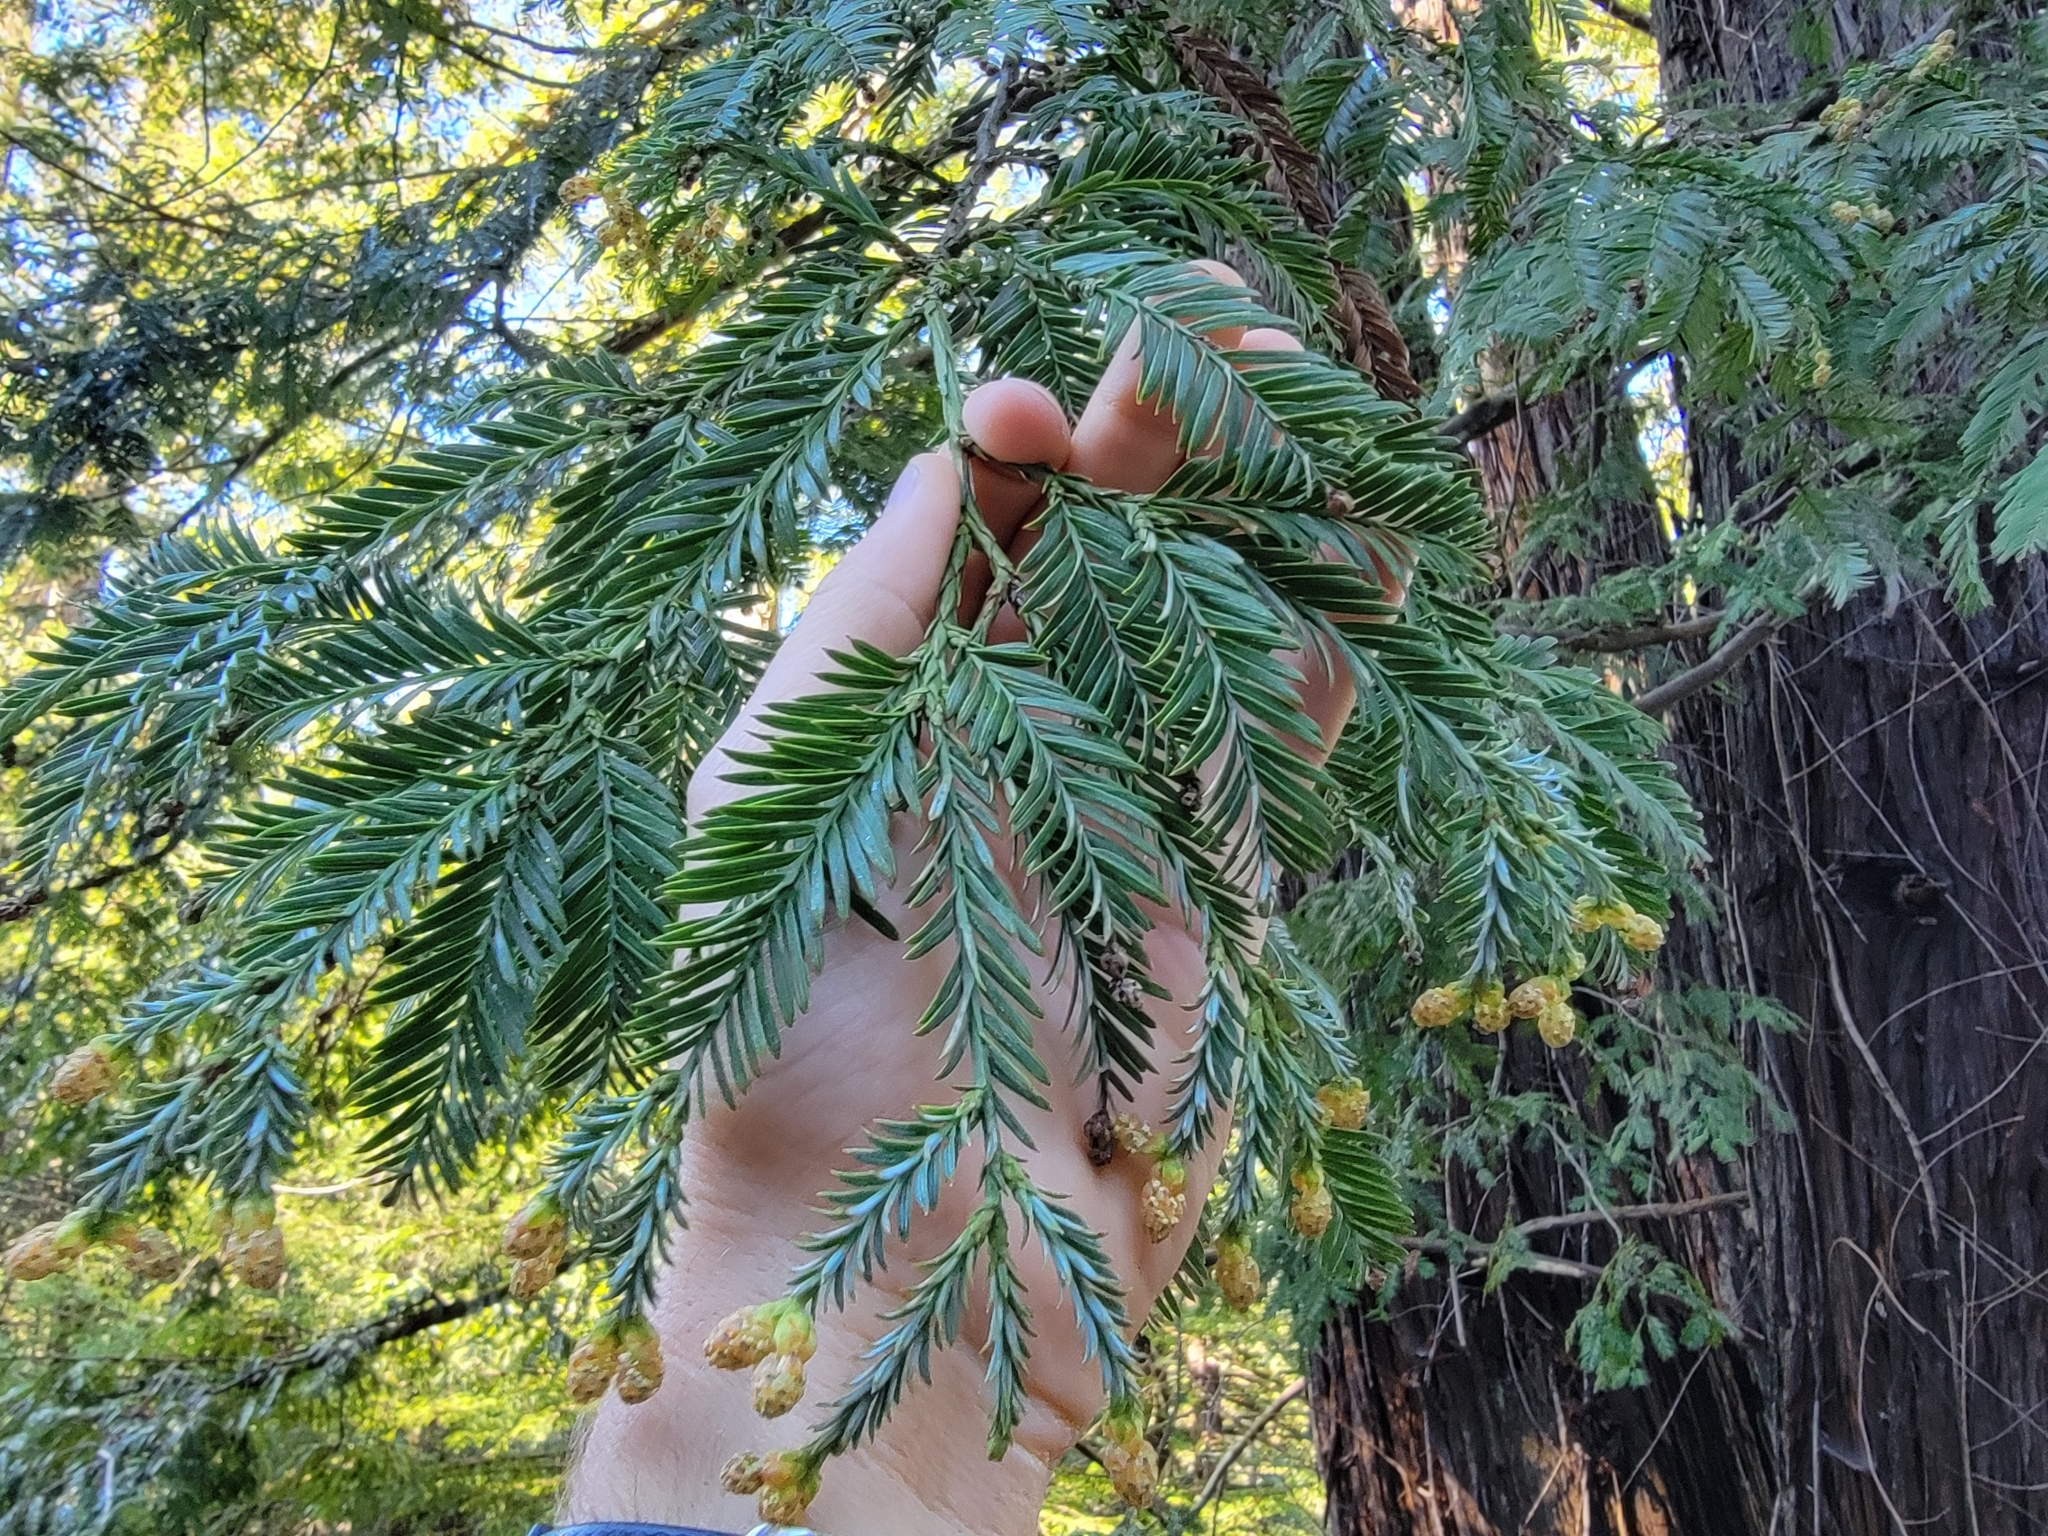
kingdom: Plantae
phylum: Tracheophyta
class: Pinopsida
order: Pinales
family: Cupressaceae
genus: Sequoia
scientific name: Sequoia sempervirens
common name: Coast redwood
